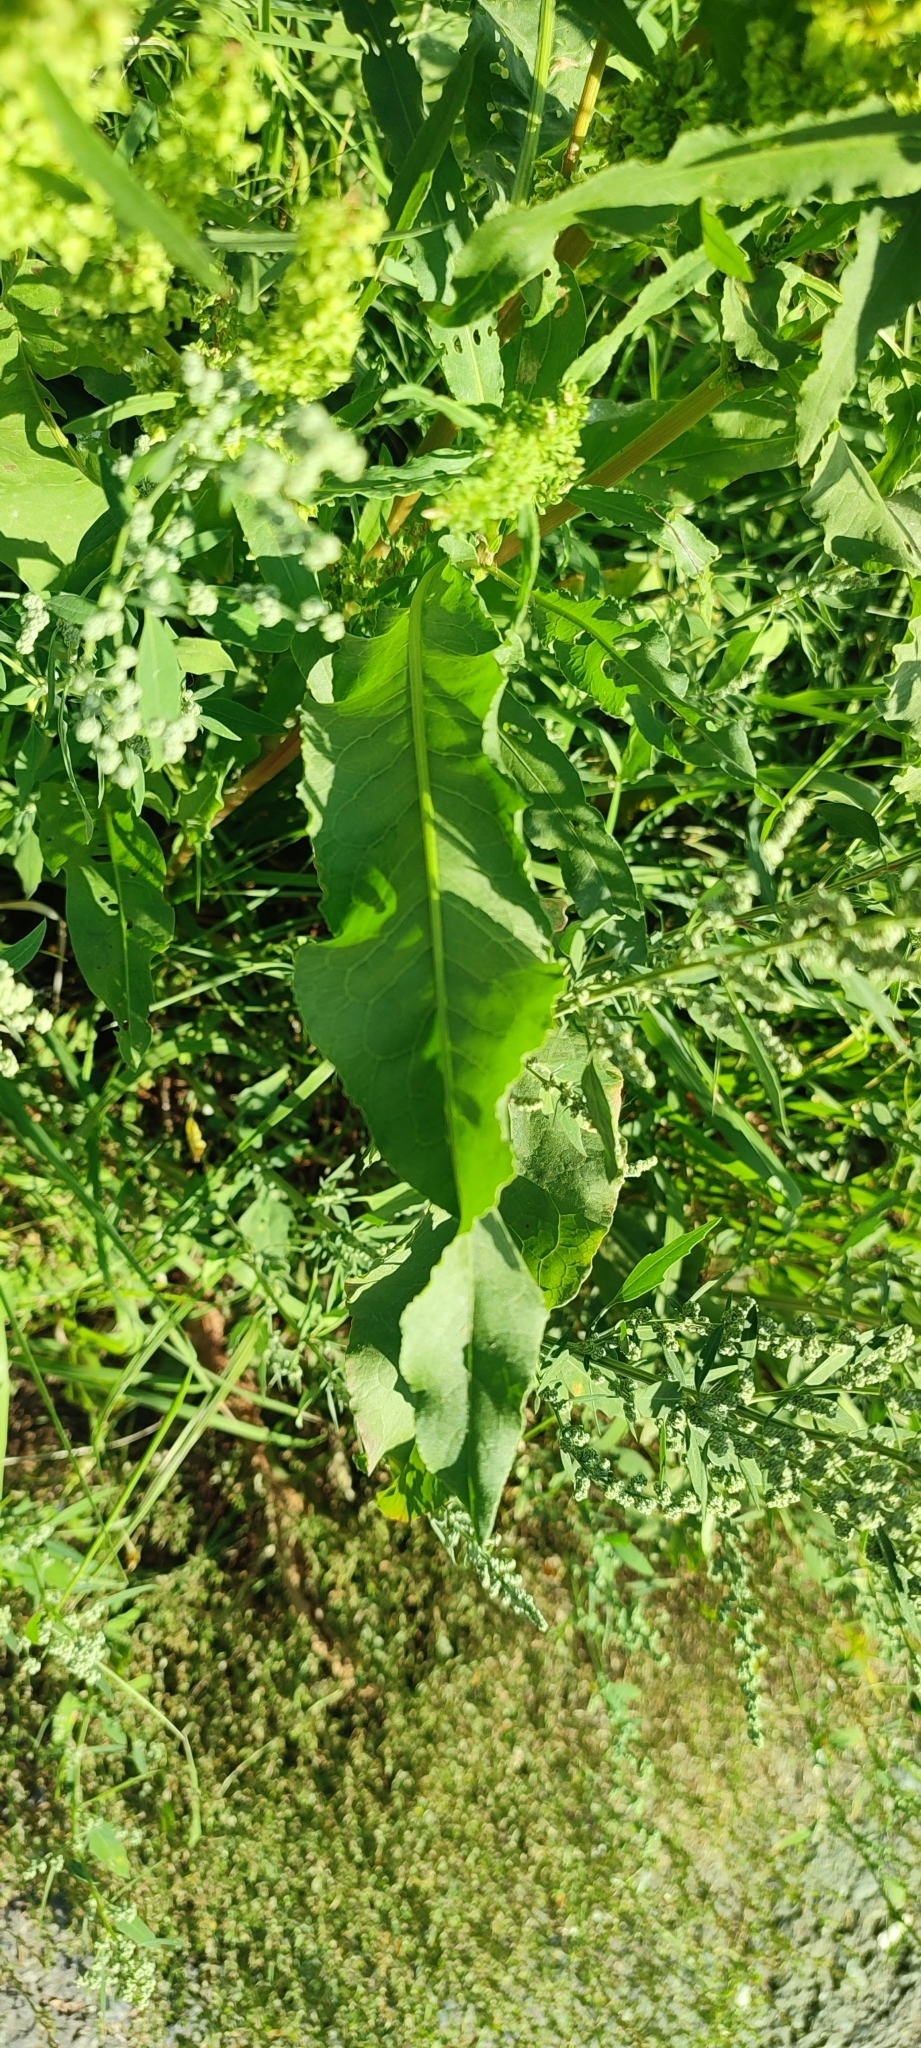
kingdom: Plantae
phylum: Tracheophyta
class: Magnoliopsida
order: Caryophyllales
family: Polygonaceae
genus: Rumex
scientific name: Rumex stenophyllus
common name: Narrowleaf dock
